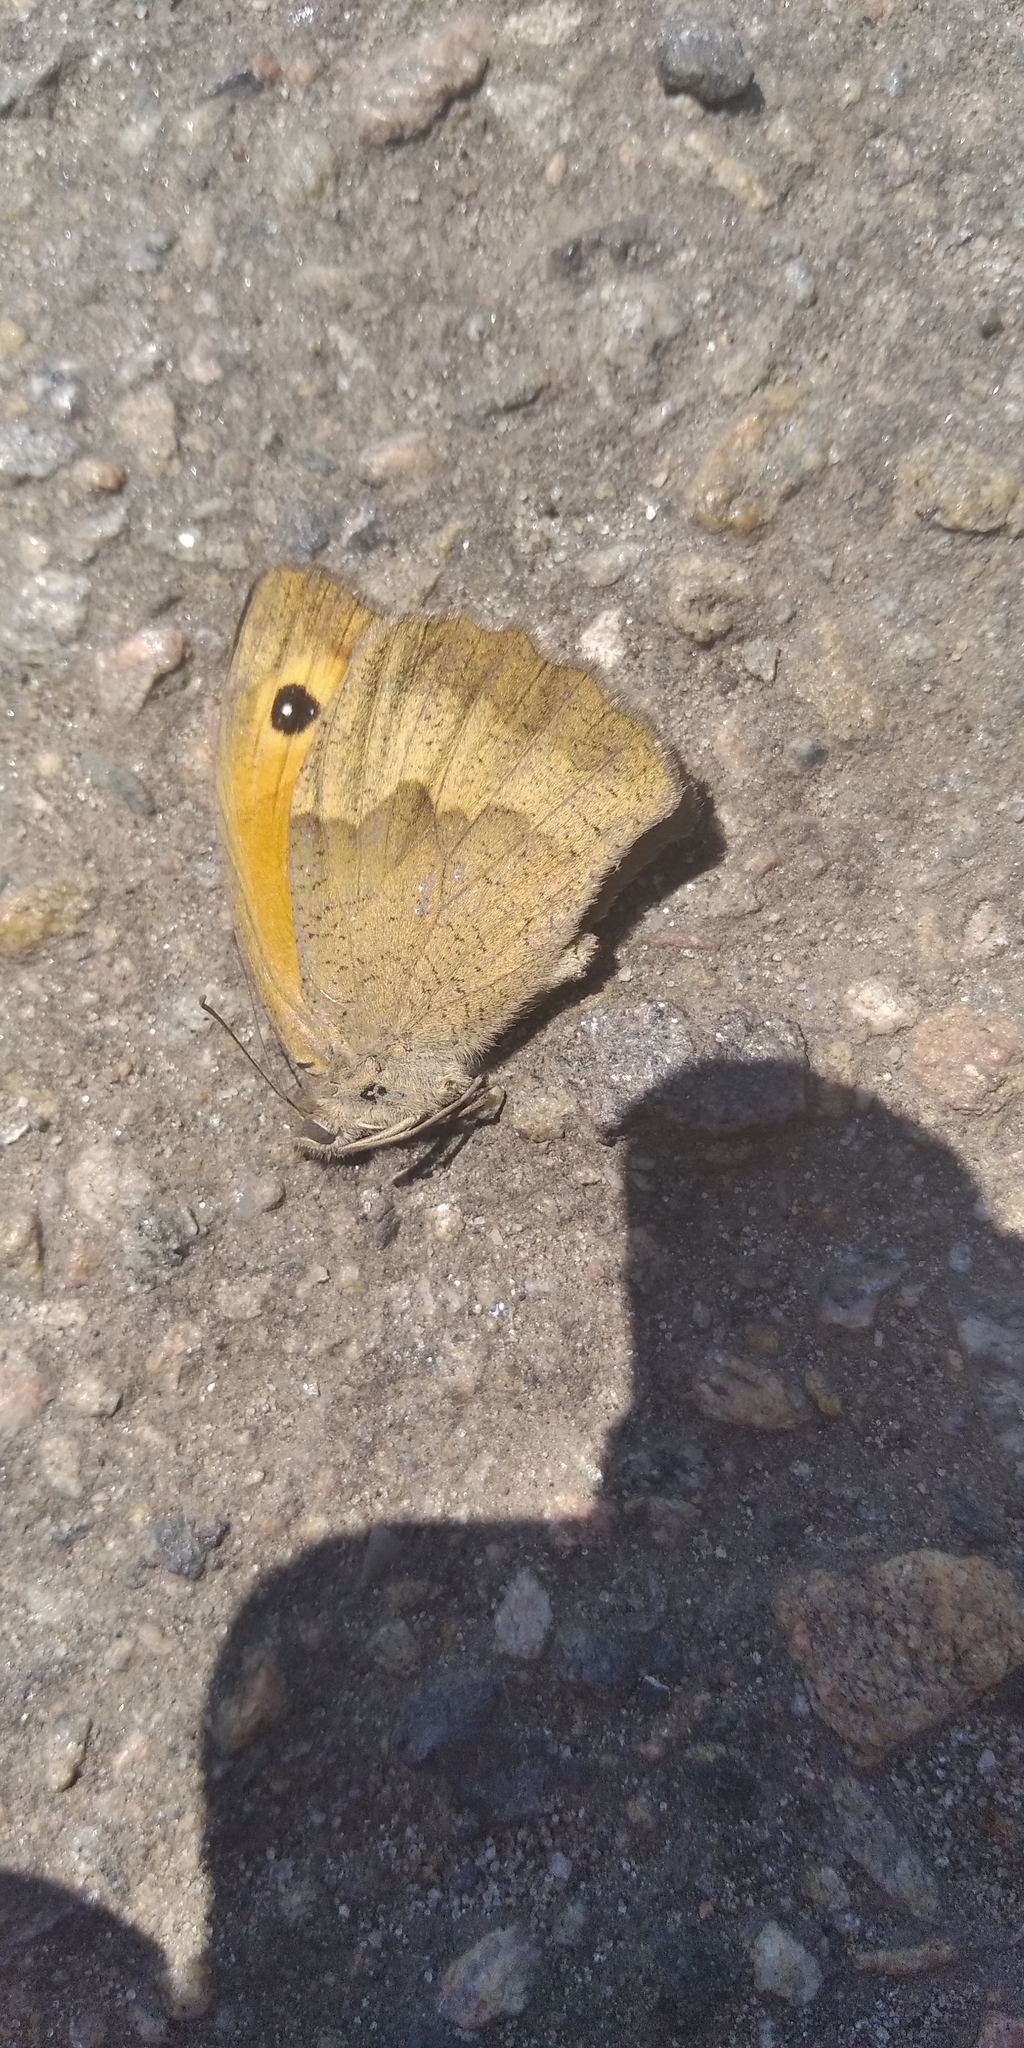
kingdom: Animalia
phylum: Arthropoda
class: Insecta
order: Lepidoptera
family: Nymphalidae
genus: Maniola
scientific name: Maniola jurtina
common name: Meadow brown
